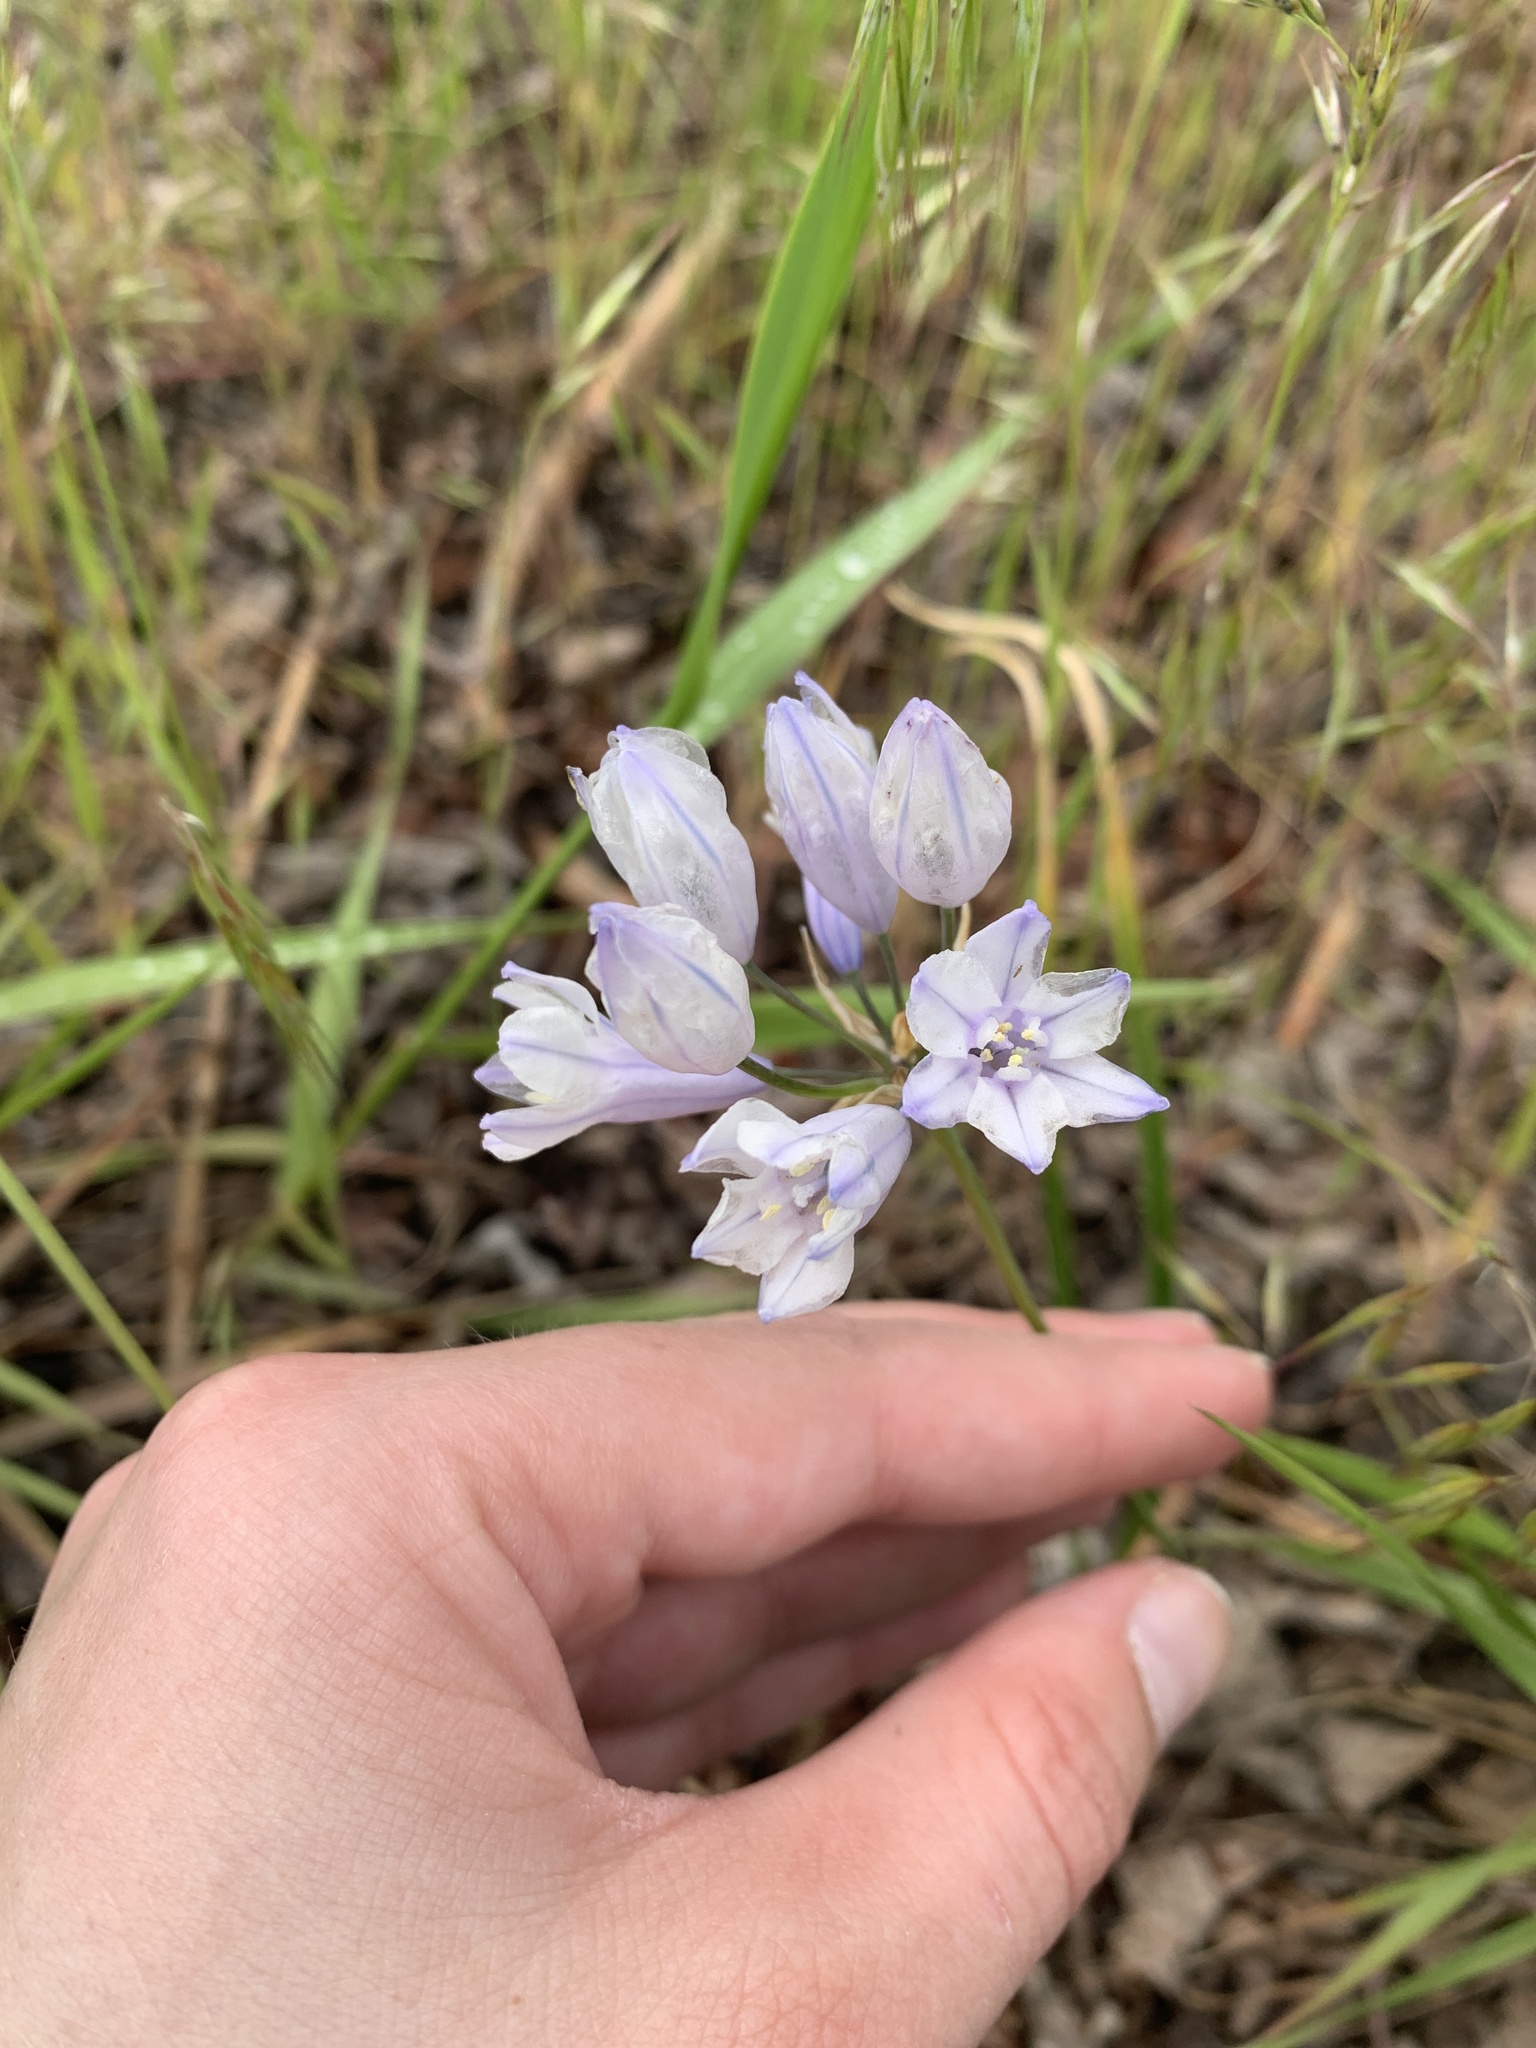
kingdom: Plantae
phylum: Tracheophyta
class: Liliopsida
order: Asparagales
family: Asparagaceae
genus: Triteleia
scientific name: Triteleia grandiflora
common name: Wild hyacinth
